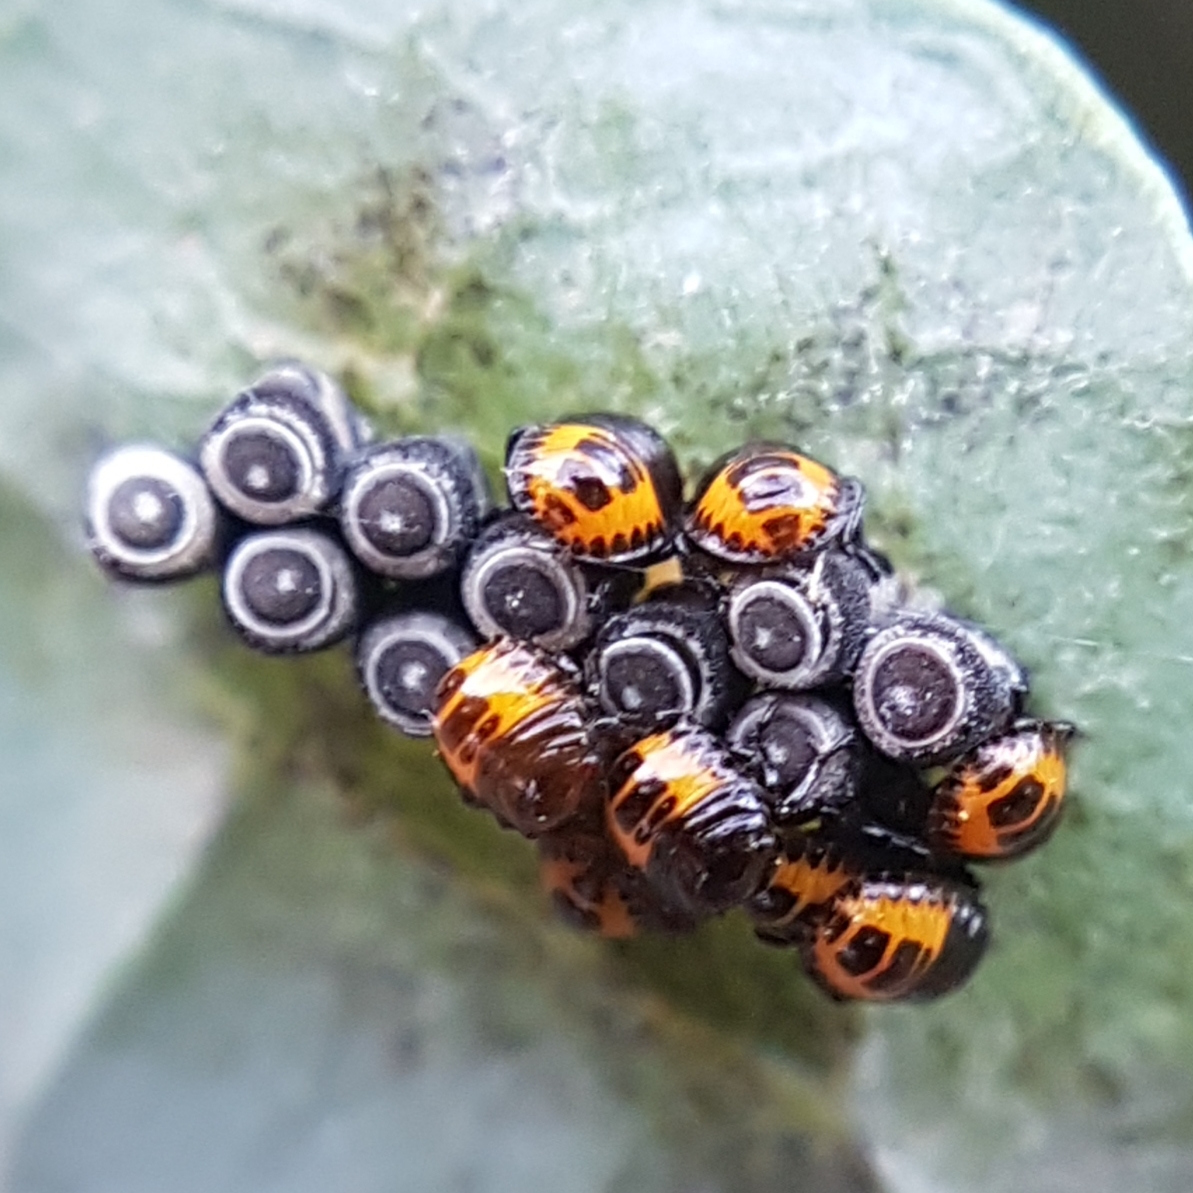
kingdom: Animalia
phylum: Arthropoda
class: Insecta
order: Hemiptera
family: Pentatomidae
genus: Eurydema
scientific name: Eurydema ventralis
